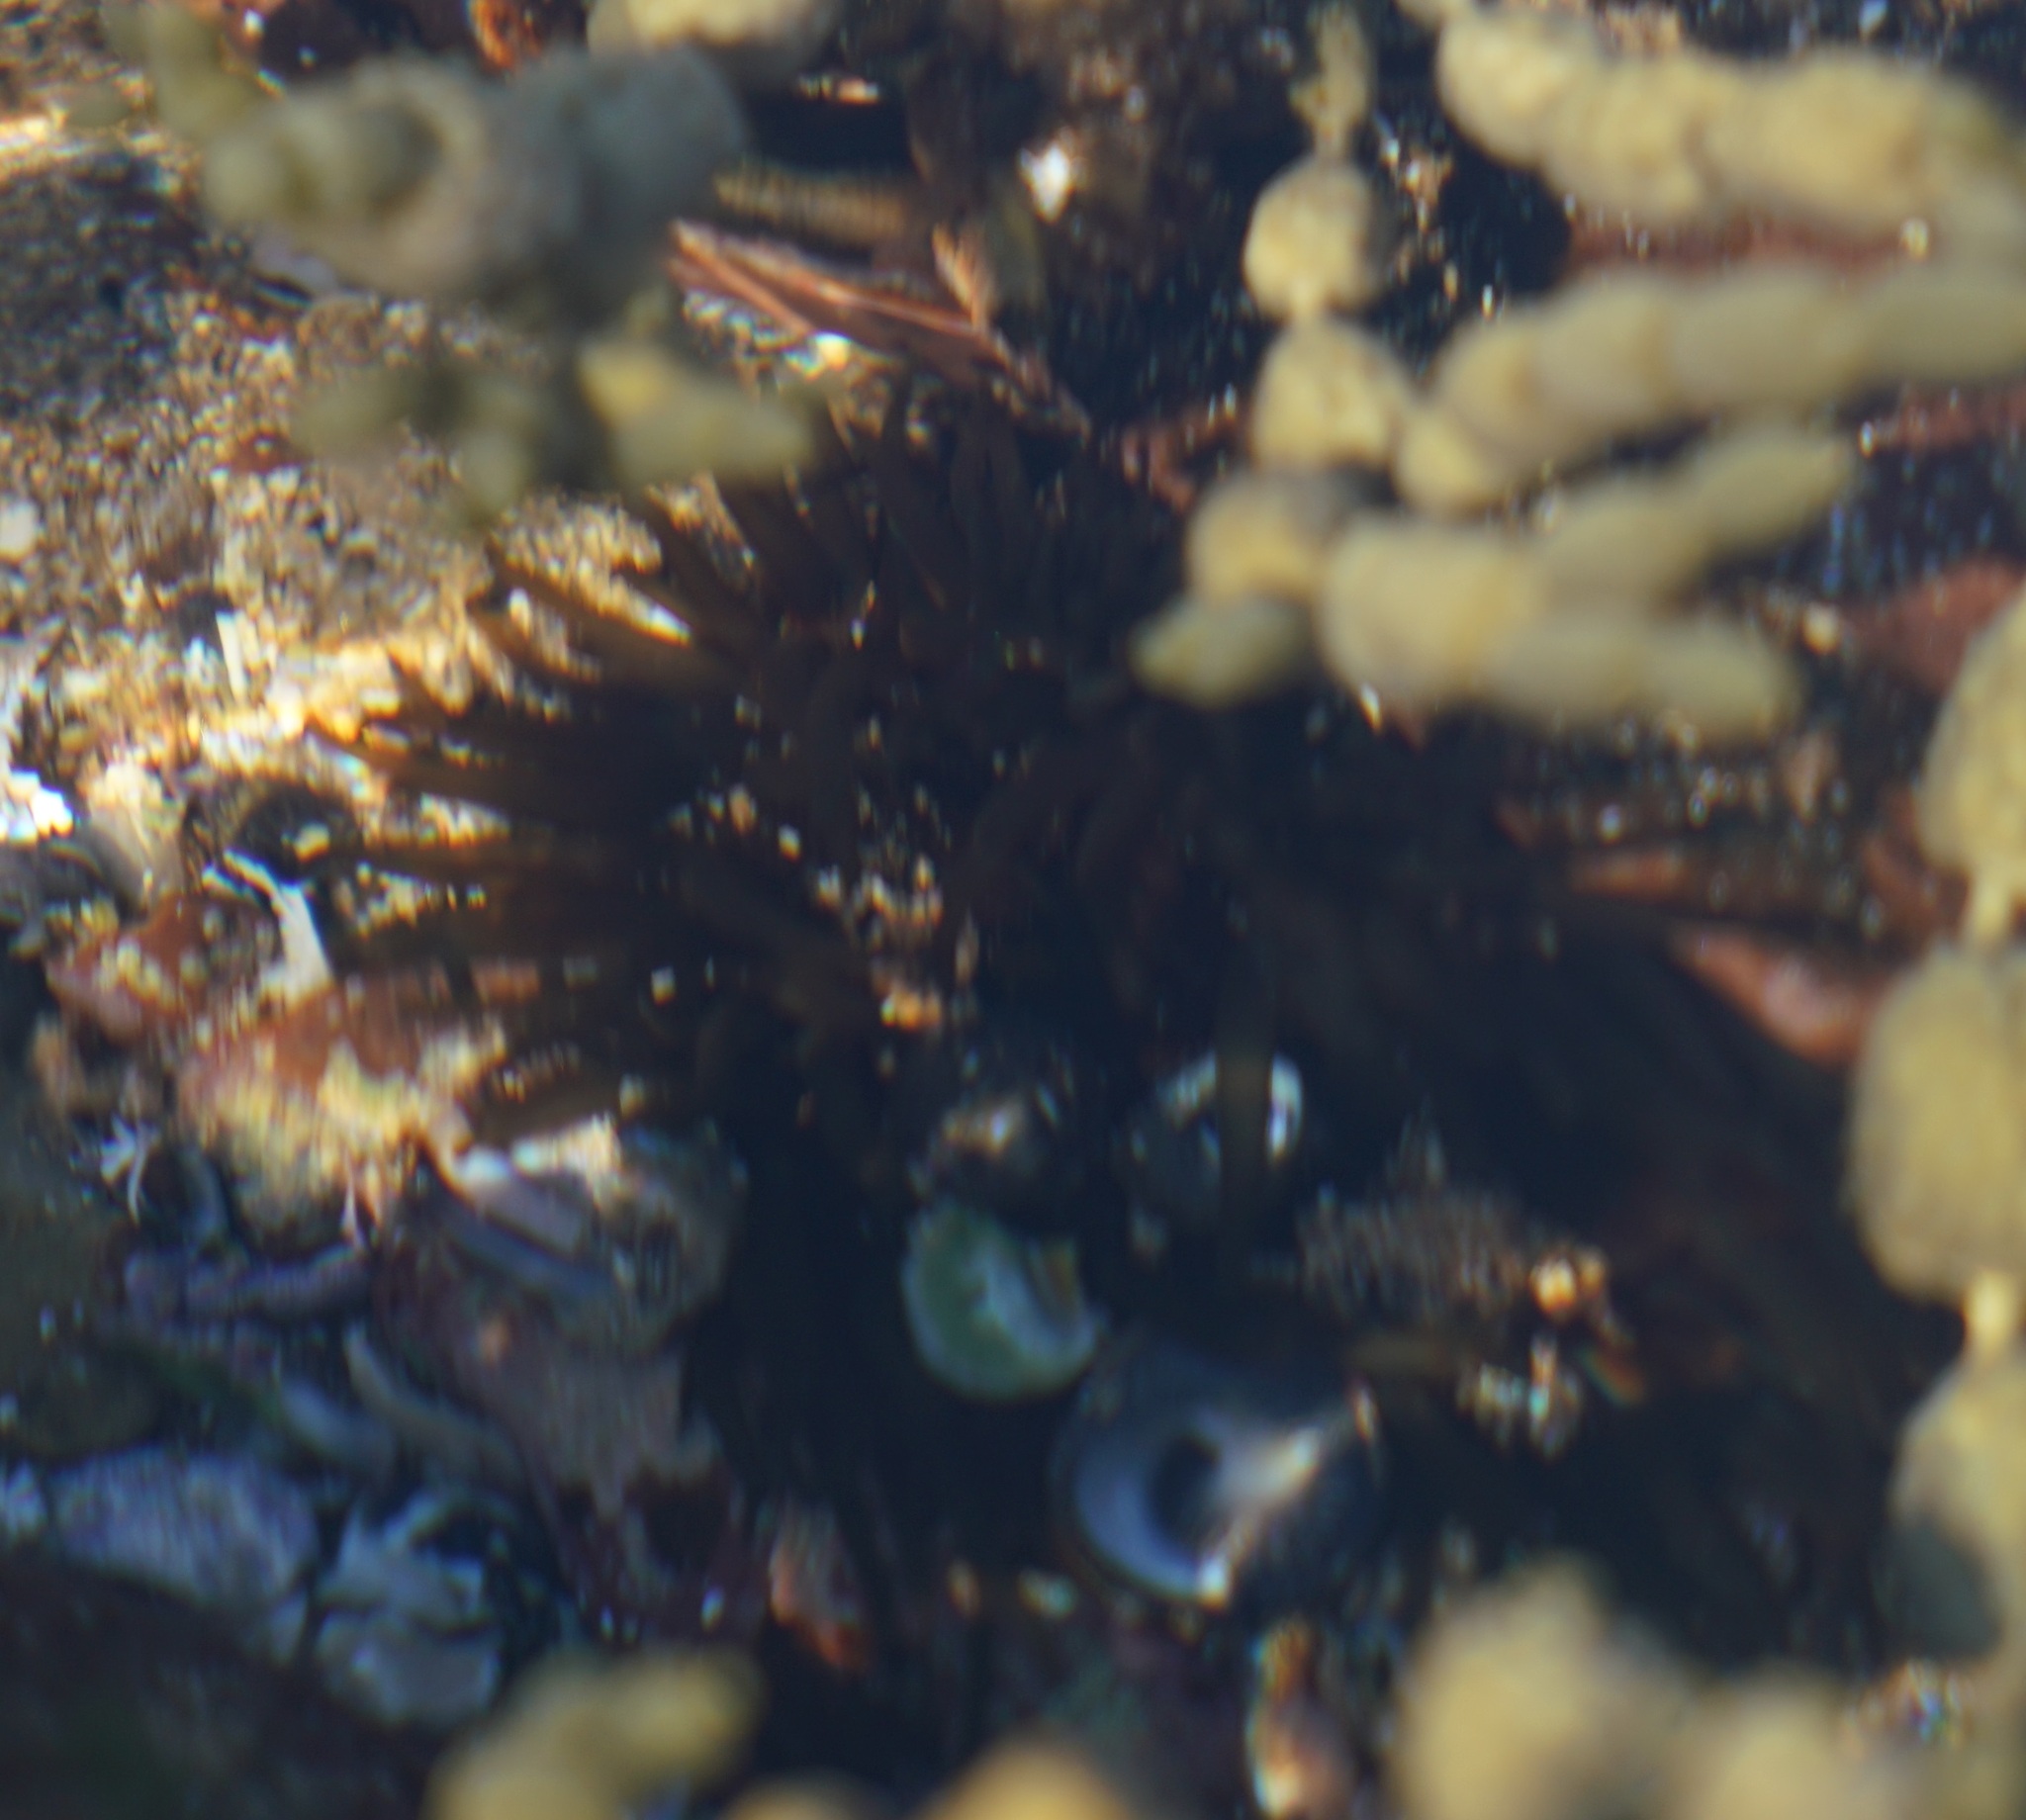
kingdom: Animalia
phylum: Cnidaria
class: Anthozoa
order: Actiniaria
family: Actiniidae
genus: Aulactinia
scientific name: Aulactinia veratra
